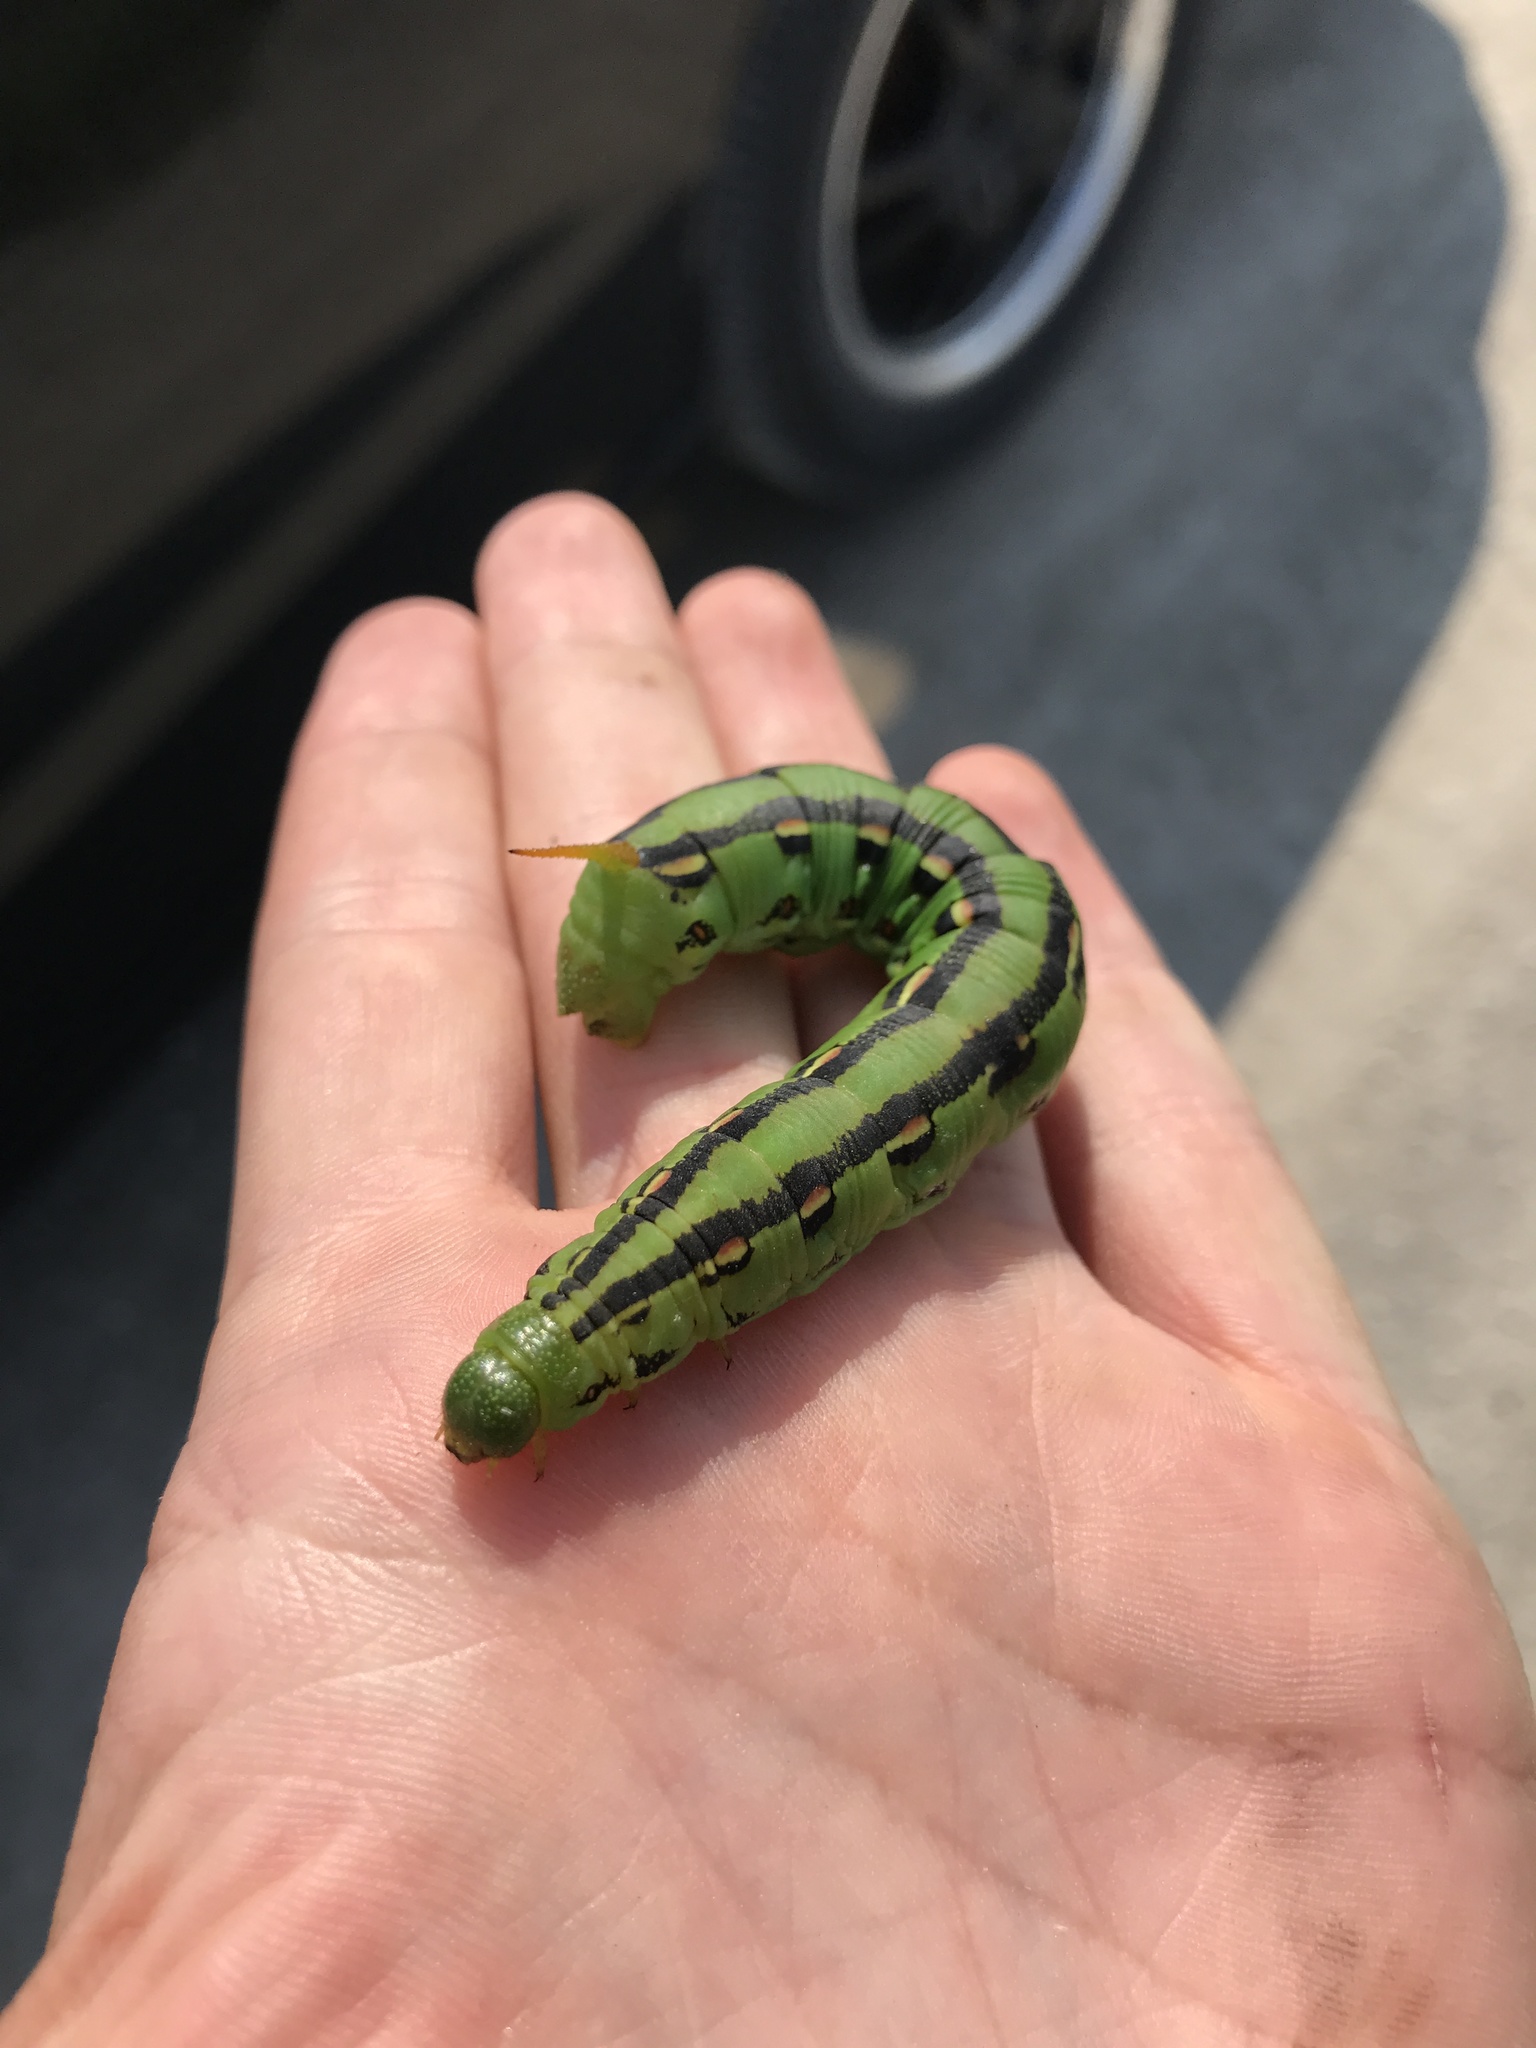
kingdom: Animalia
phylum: Arthropoda
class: Insecta
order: Lepidoptera
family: Sphingidae
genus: Hyles
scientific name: Hyles lineata
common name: White-lined sphinx
